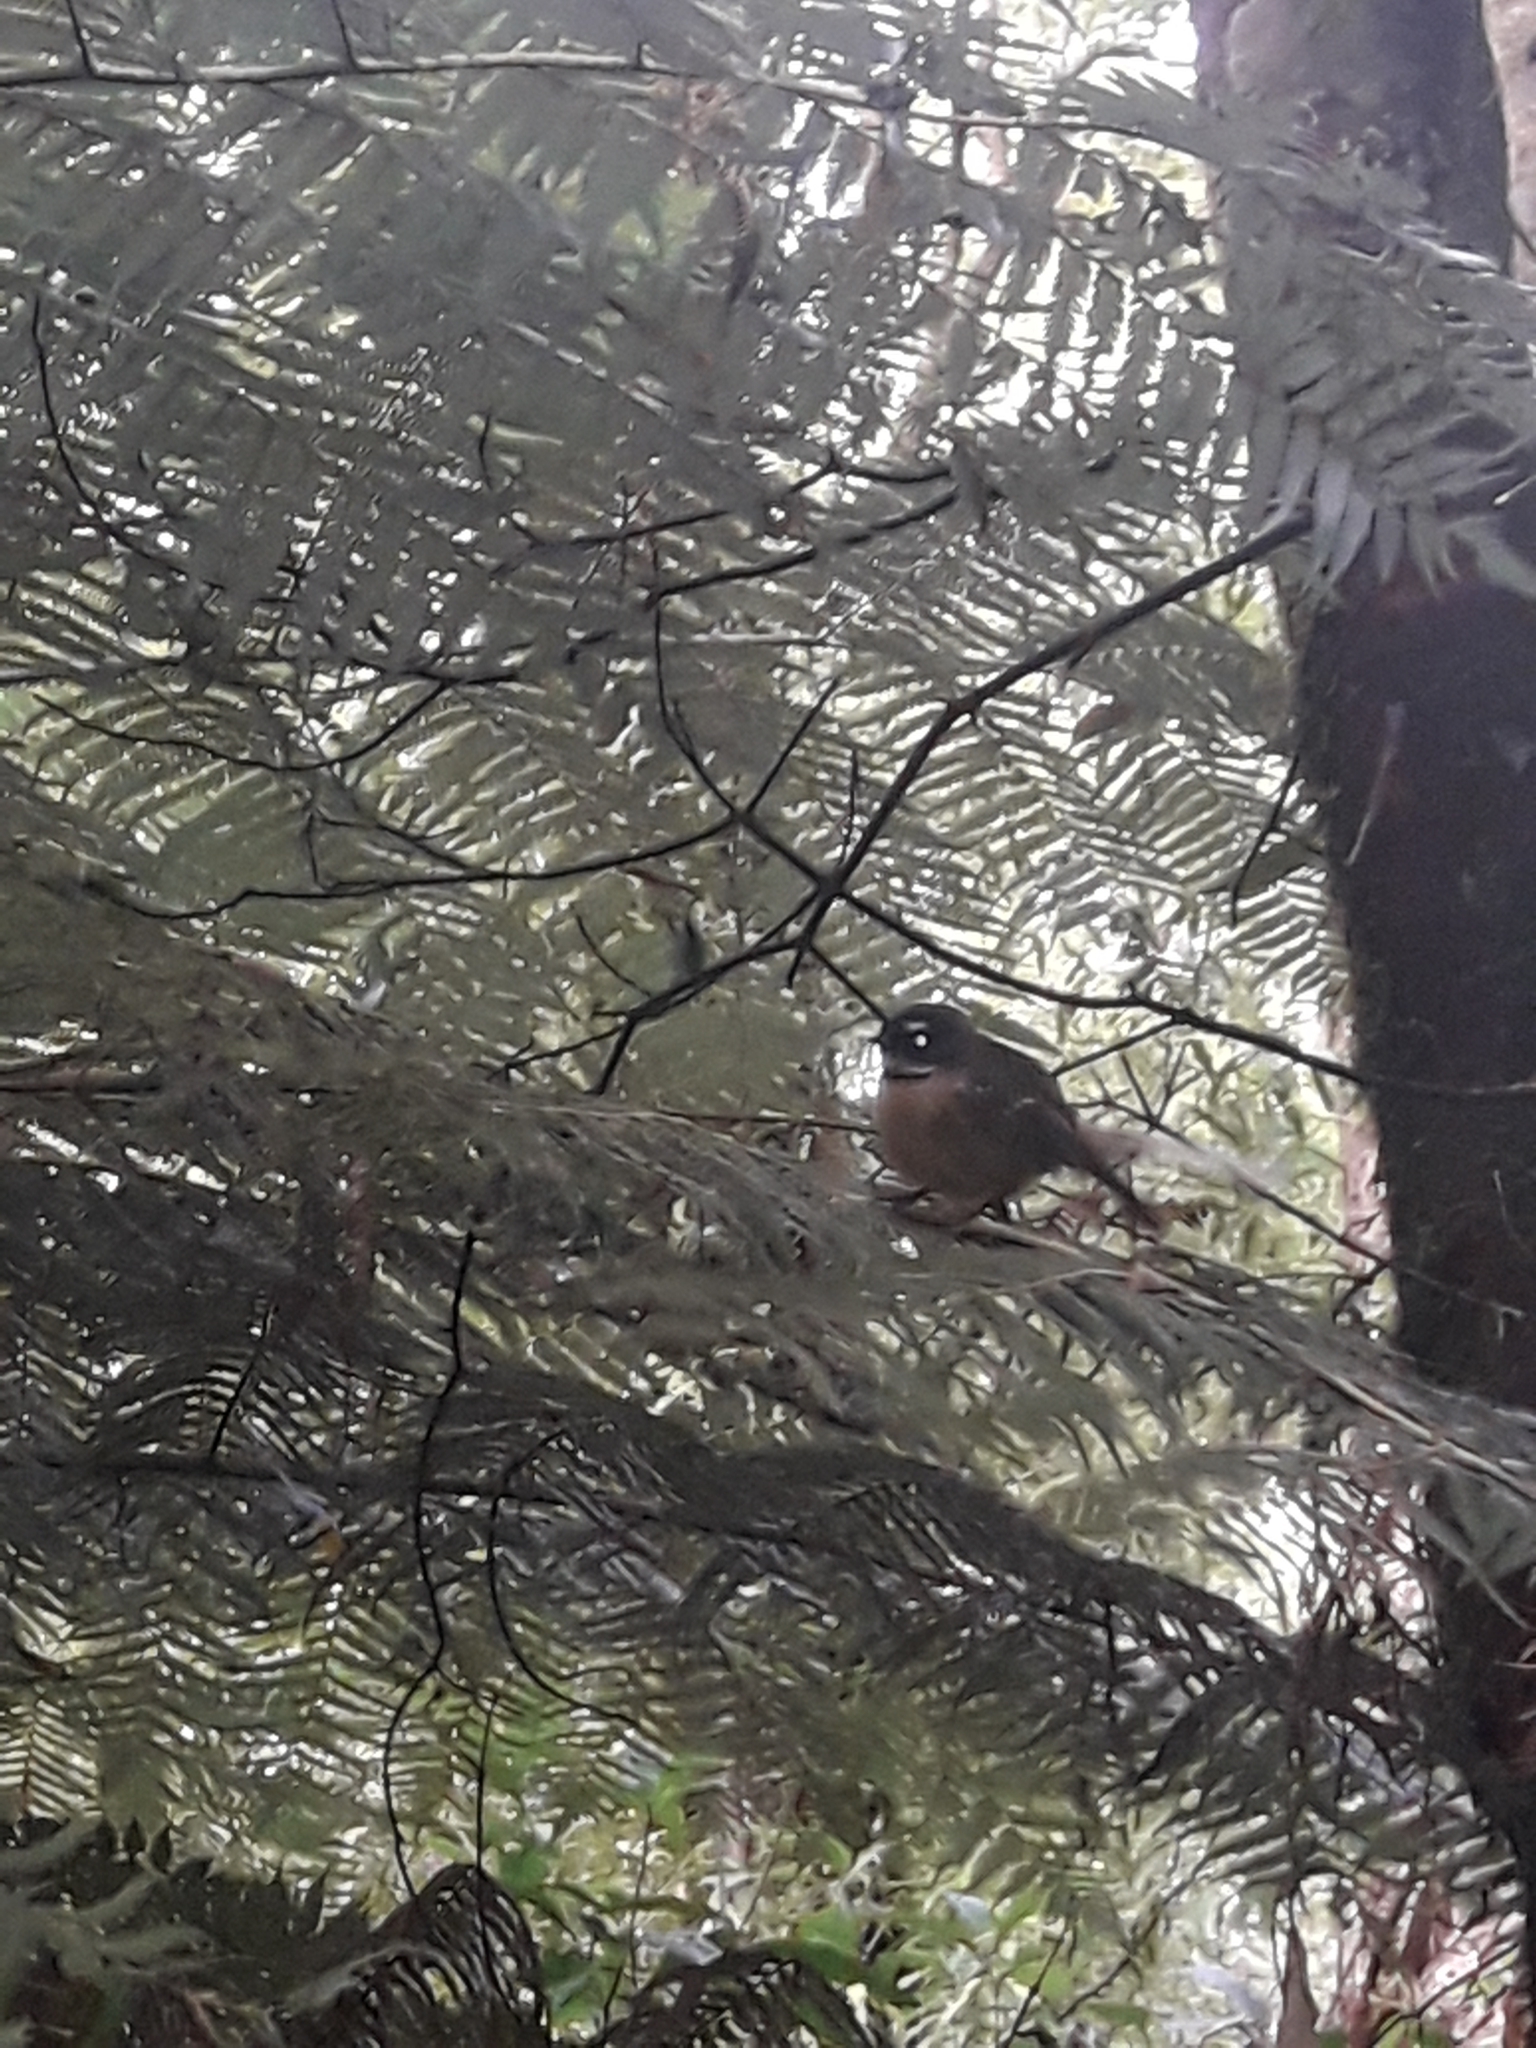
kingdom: Animalia
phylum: Chordata
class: Aves
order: Passeriformes
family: Rhipiduridae
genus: Rhipidura
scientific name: Rhipidura fuliginosa
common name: New zealand fantail
